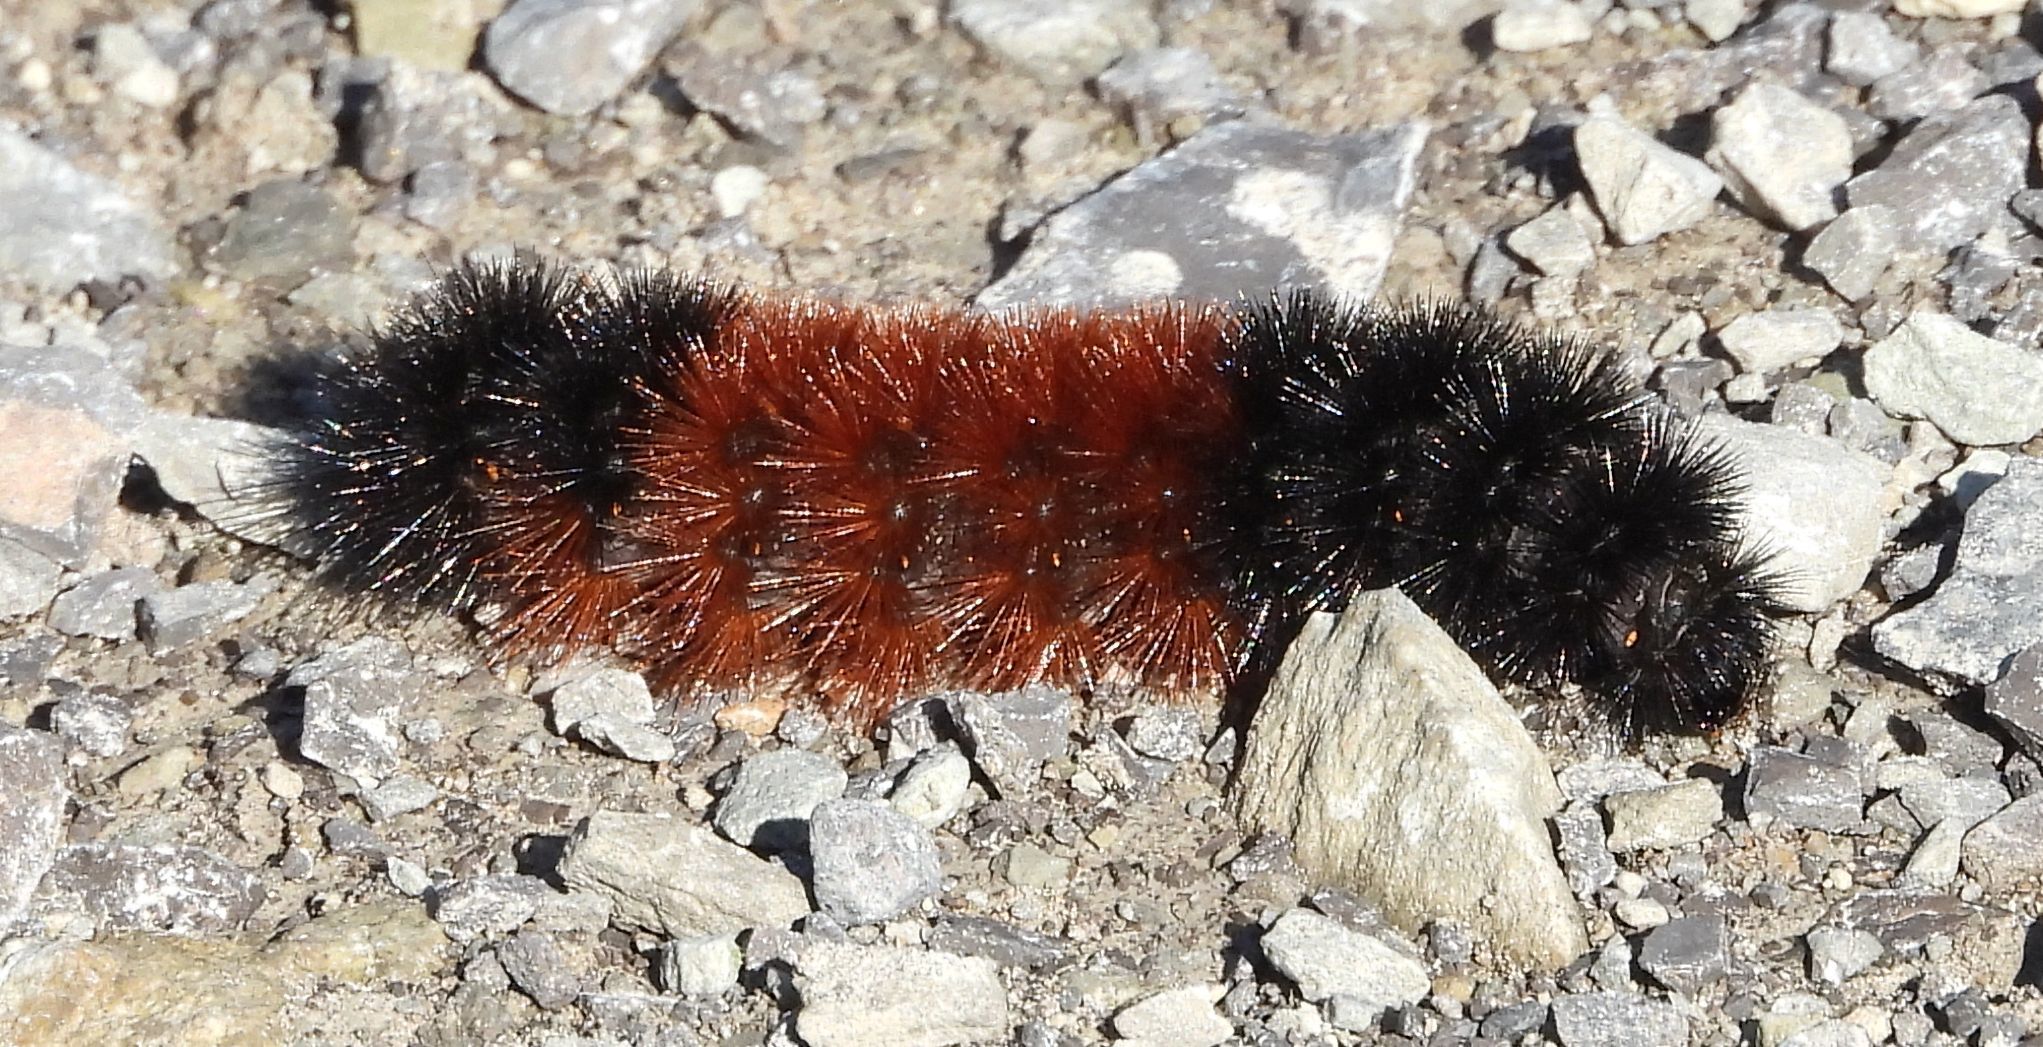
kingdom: Animalia
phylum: Arthropoda
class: Insecta
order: Lepidoptera
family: Erebidae
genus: Pyrrharctia
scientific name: Pyrrharctia isabella
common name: Isabella tiger moth
